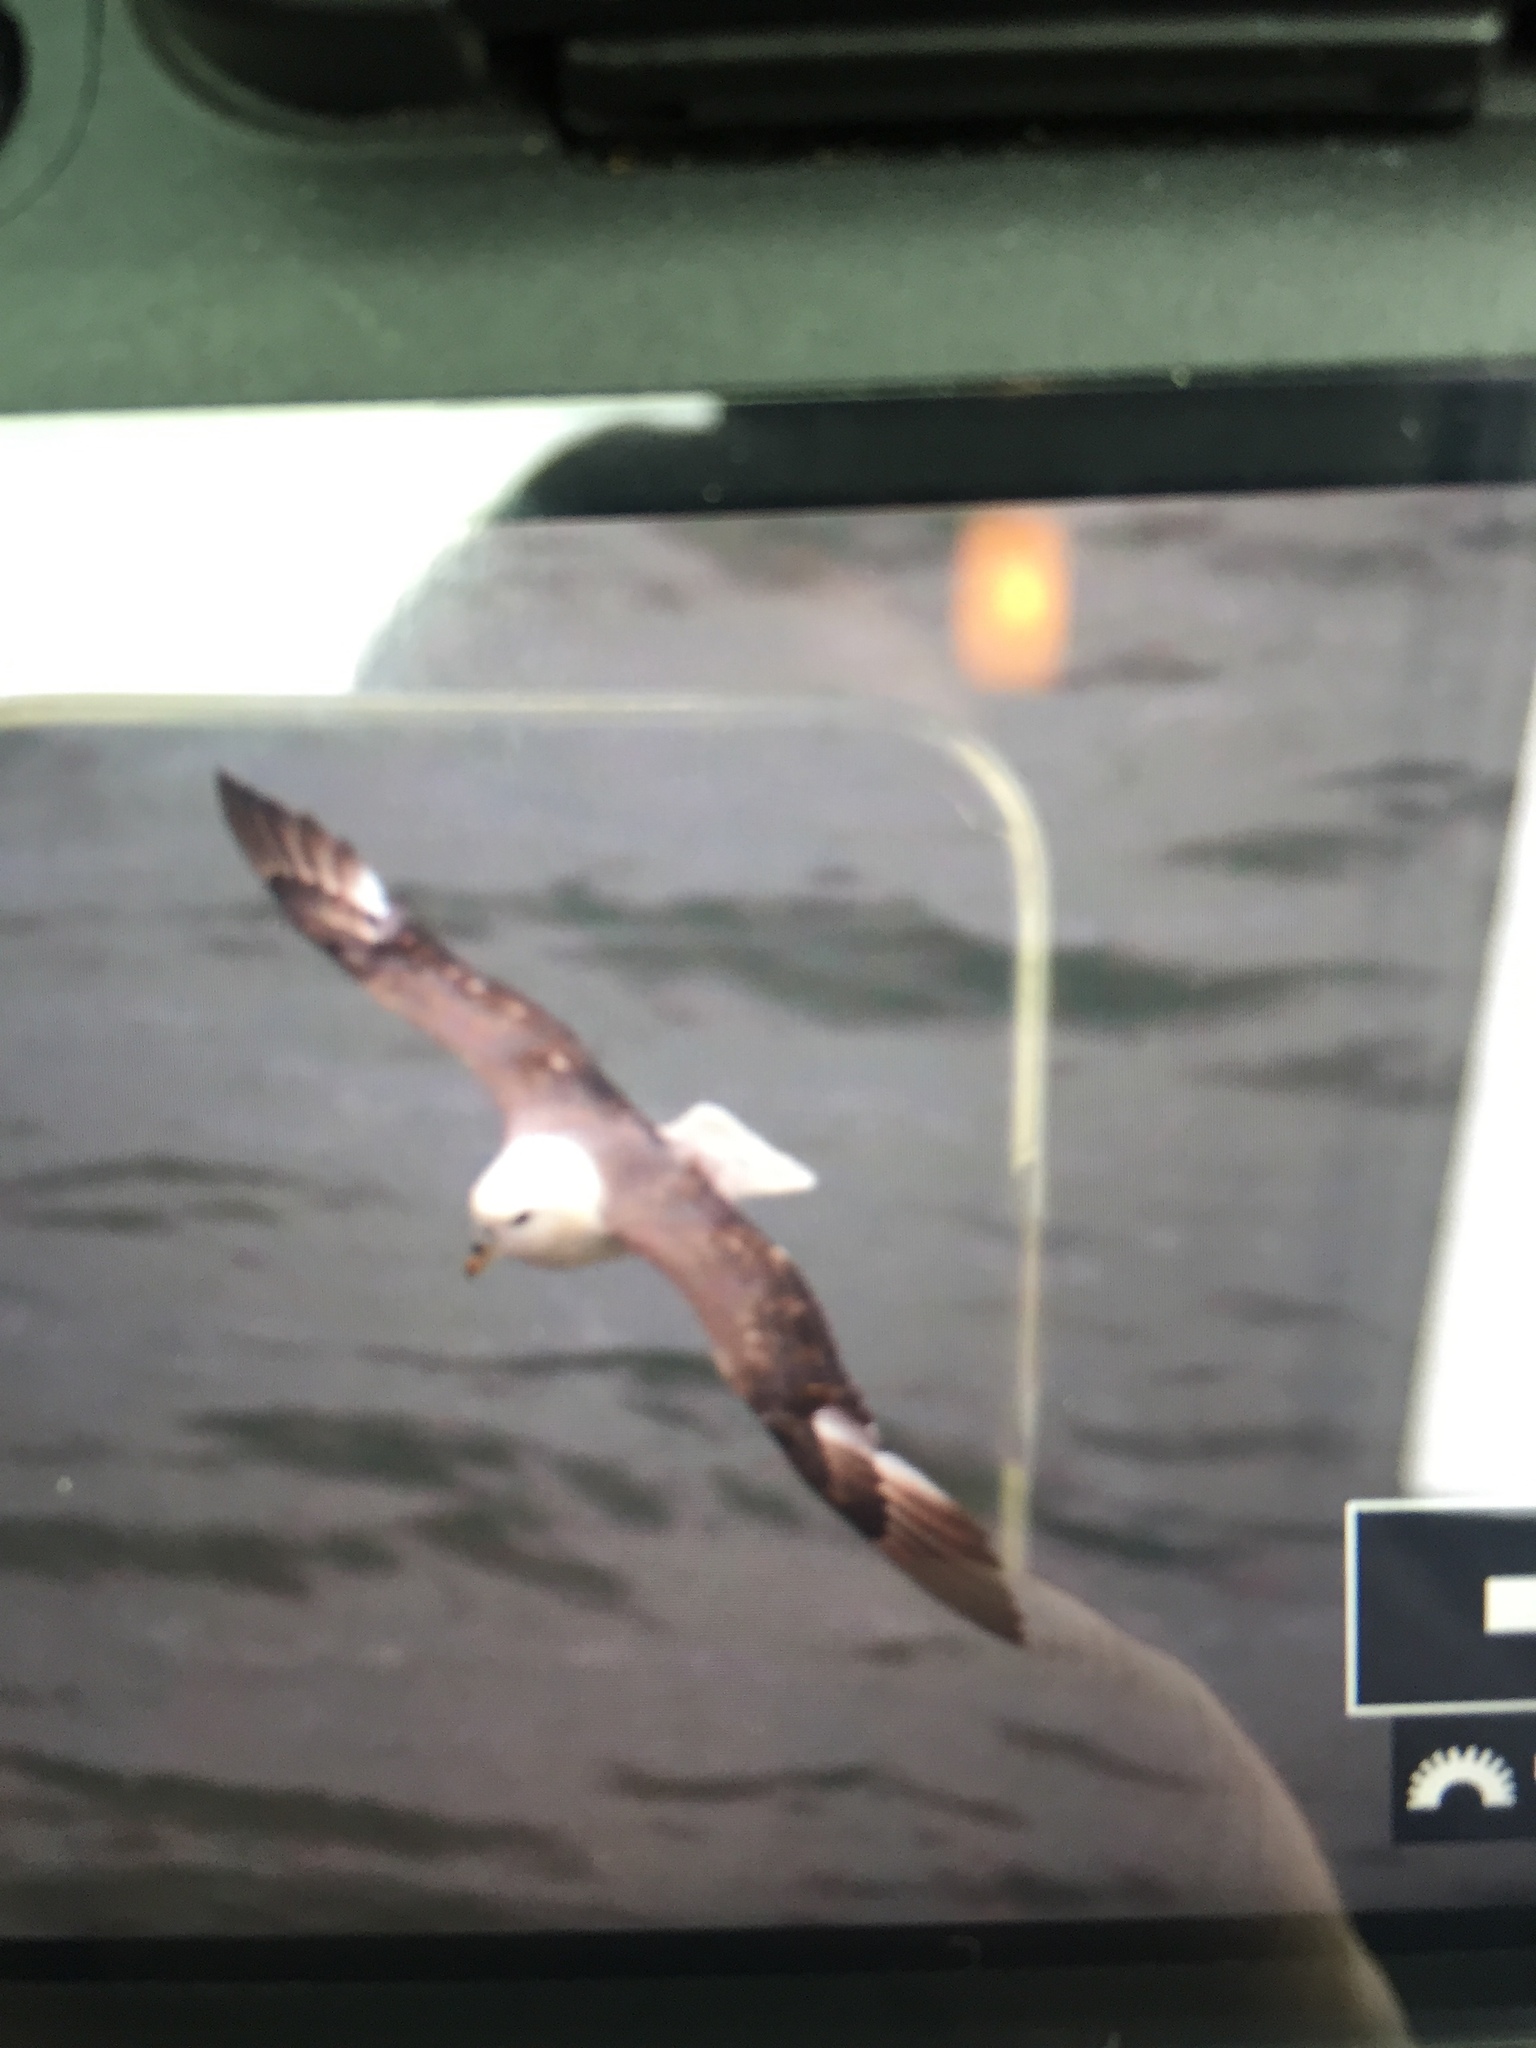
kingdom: Animalia
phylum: Chordata
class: Aves
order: Procellariiformes
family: Procellariidae
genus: Fulmarus
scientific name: Fulmarus glacialis
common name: Northern fulmar
